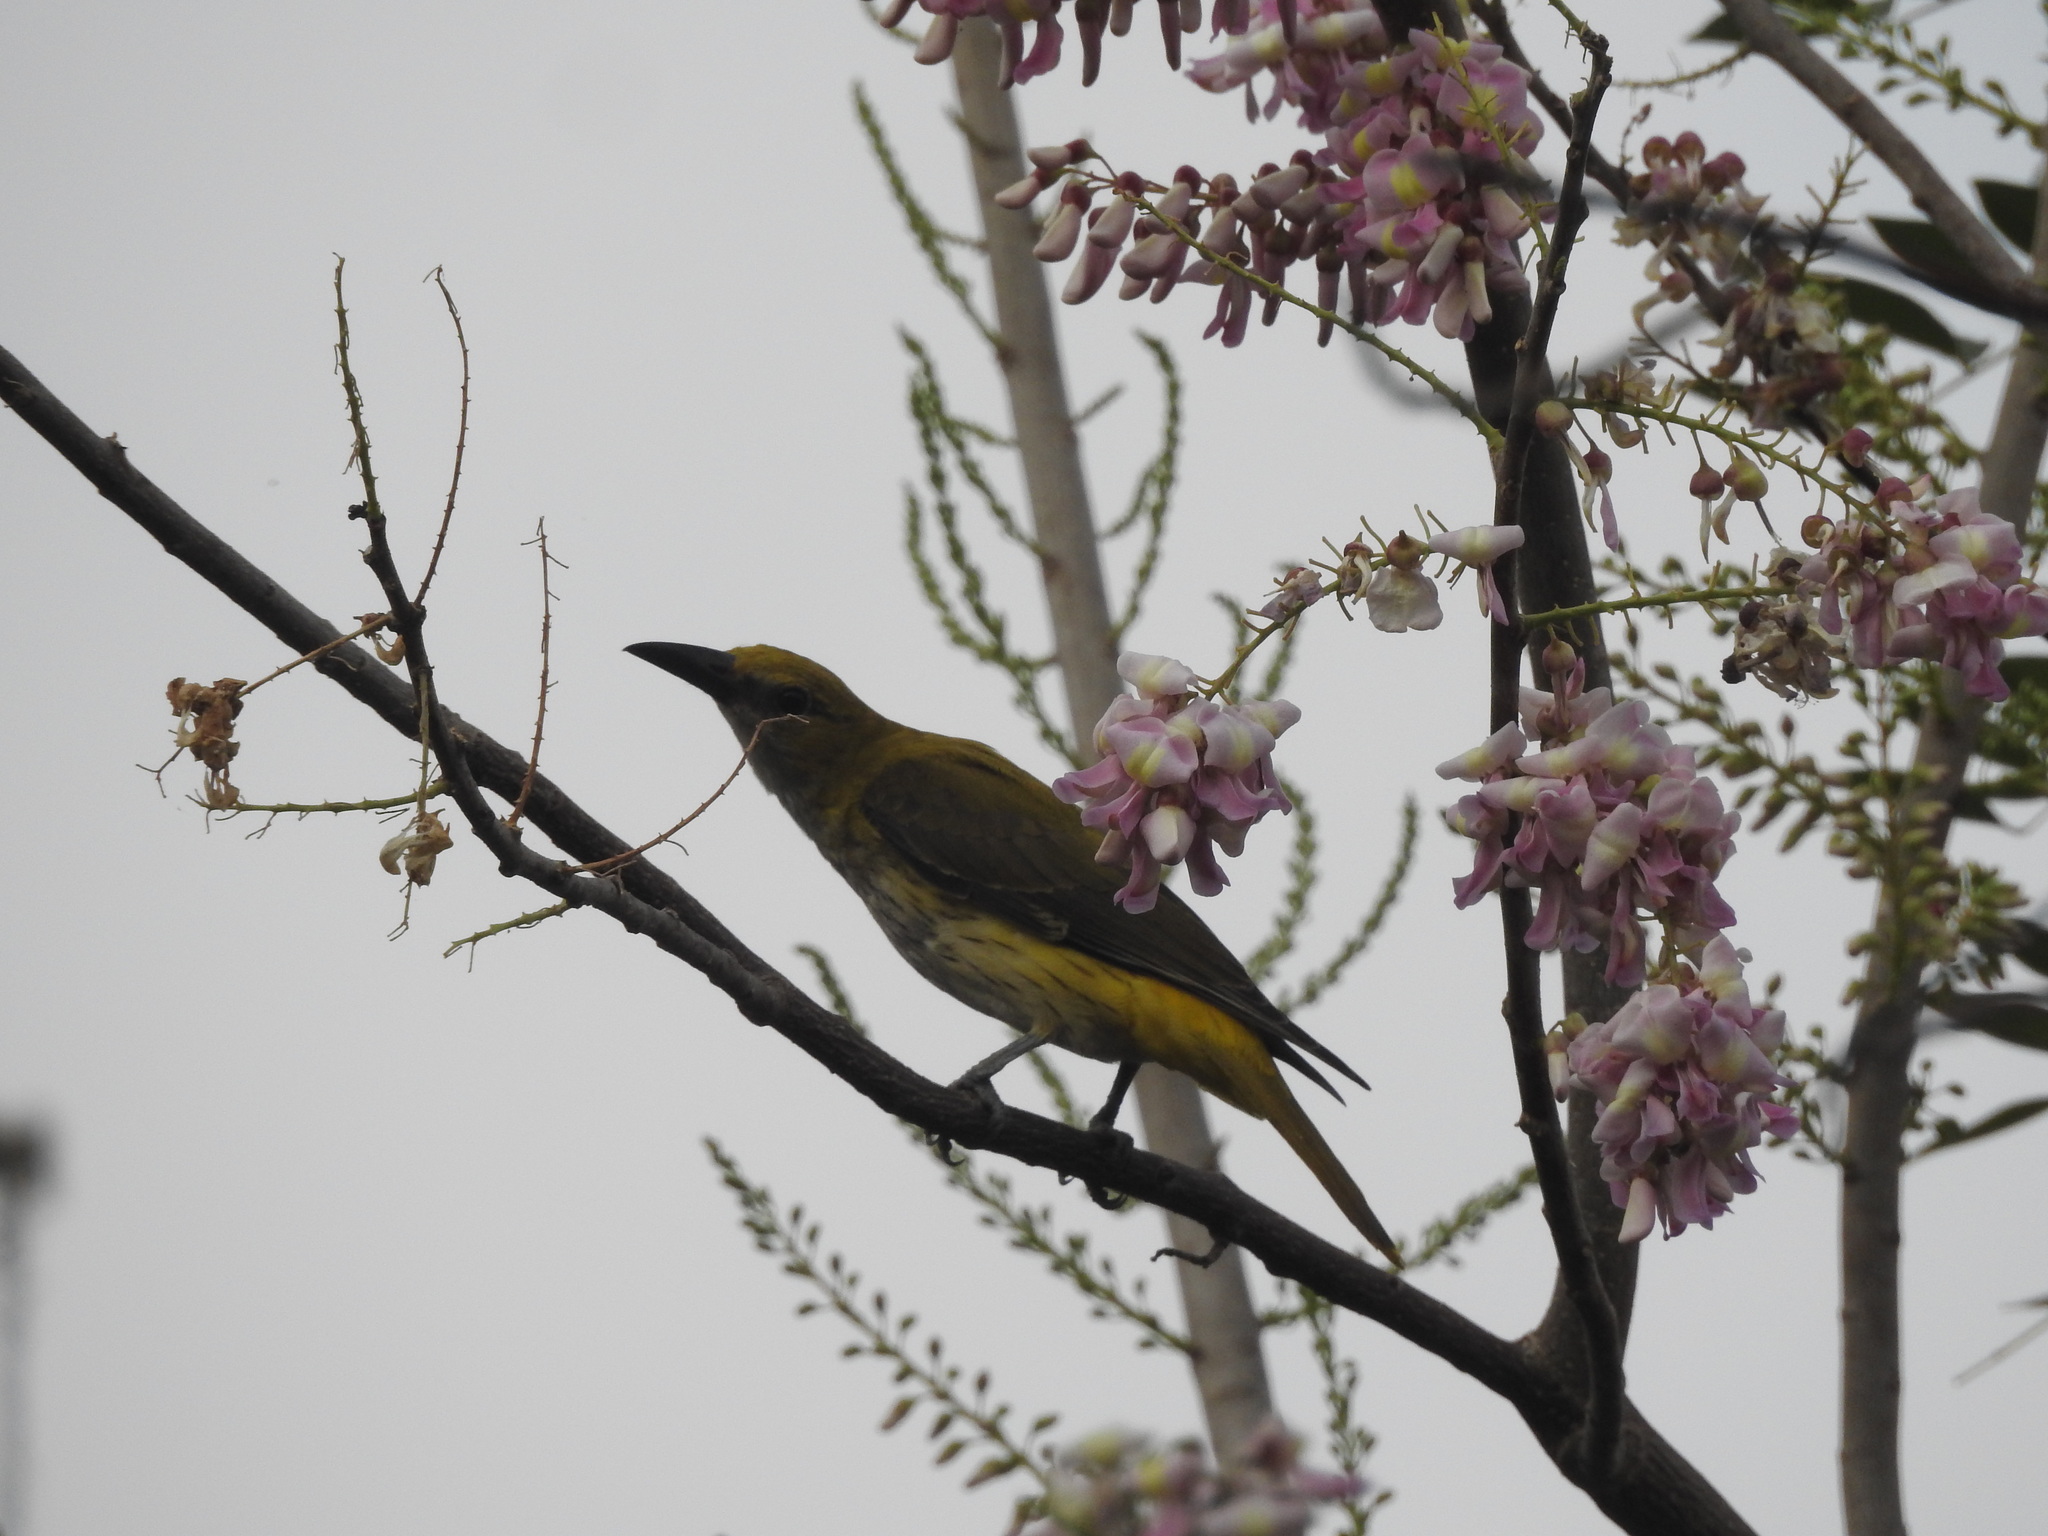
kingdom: Animalia
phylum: Chordata
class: Aves
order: Passeriformes
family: Oriolidae
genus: Oriolus
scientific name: Oriolus kundoo
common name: Indian golden oriole
